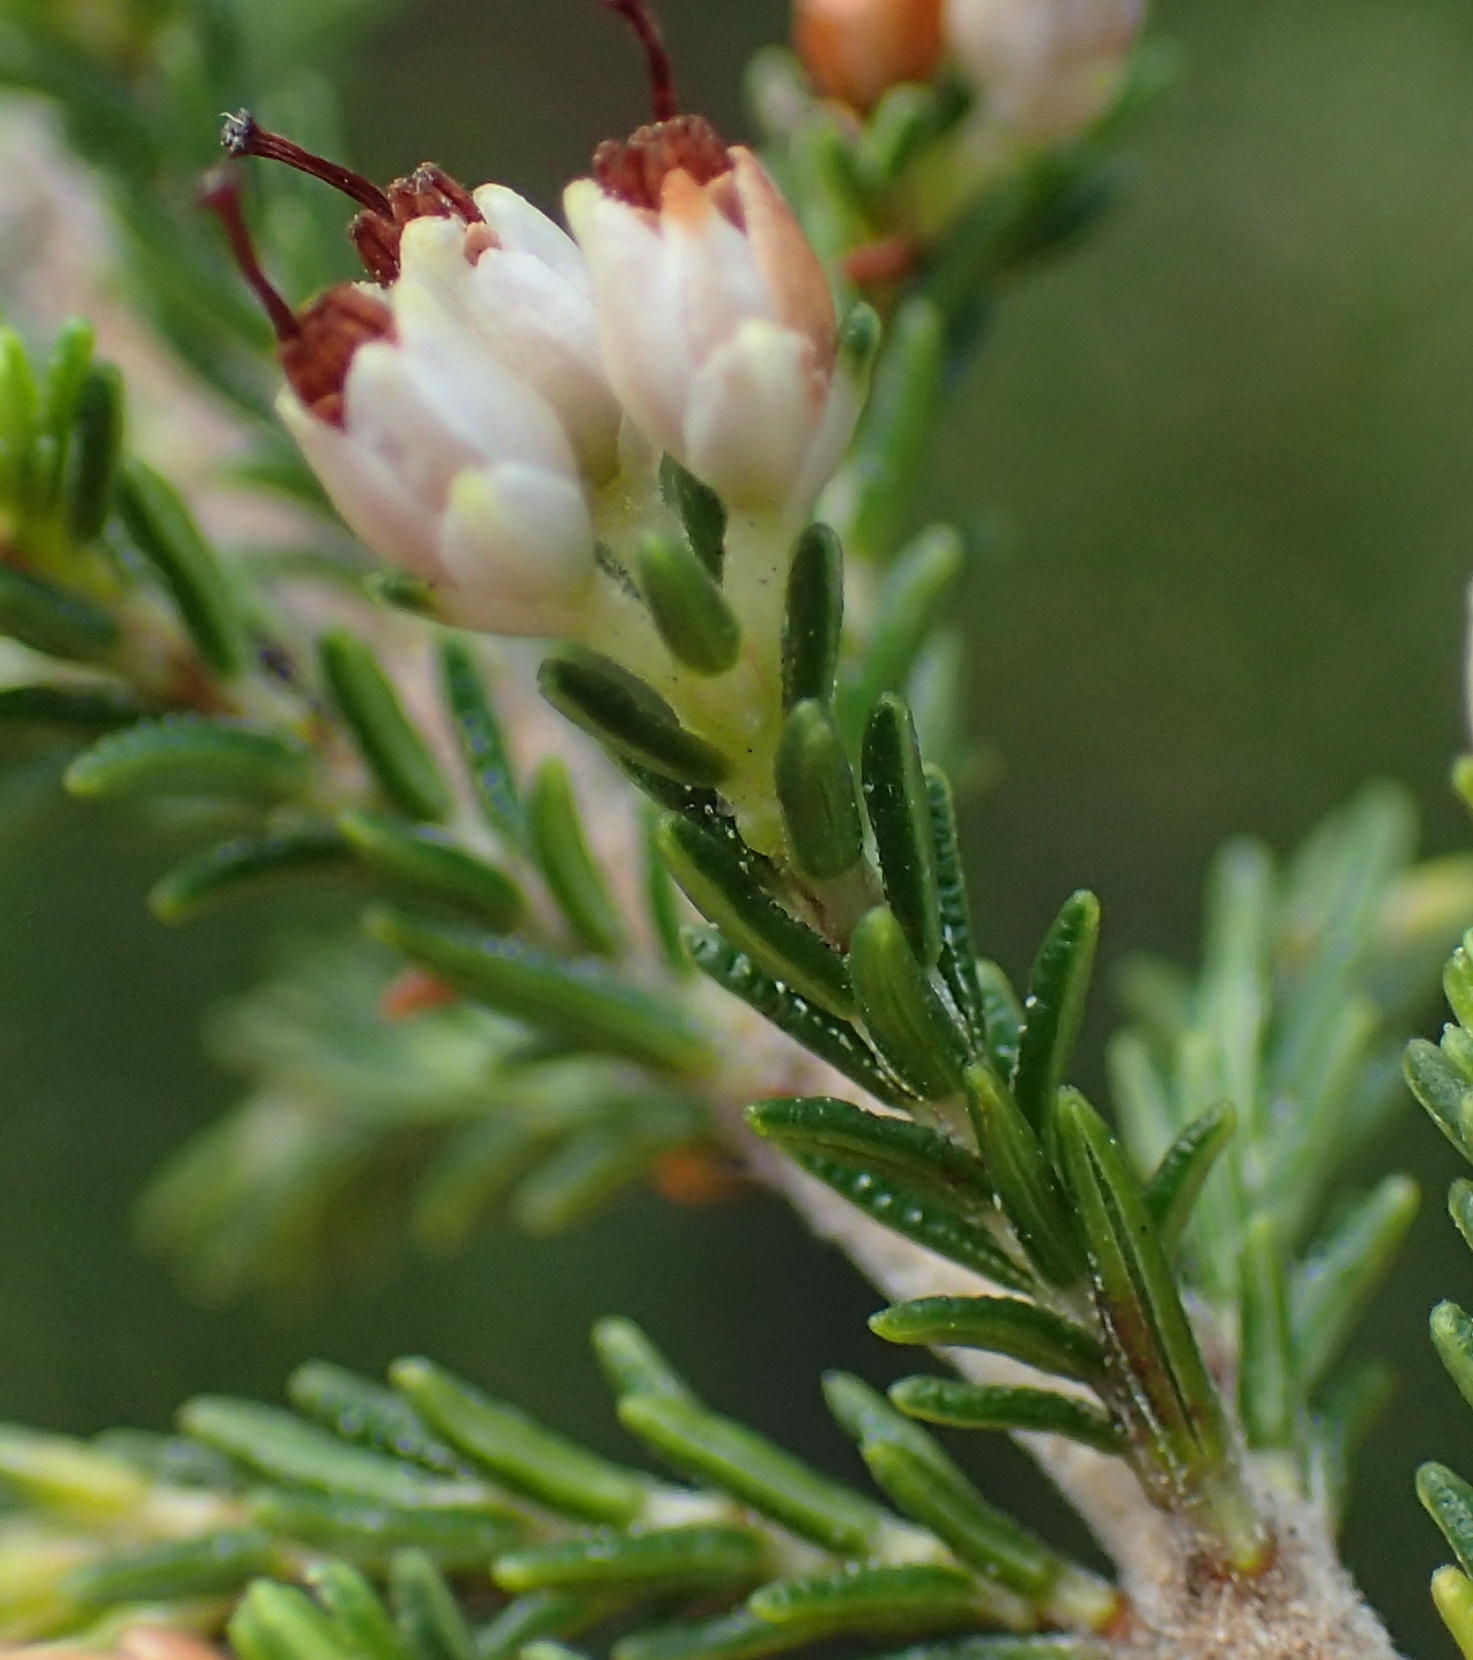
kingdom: Plantae
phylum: Tracheophyta
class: Magnoliopsida
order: Ericales
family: Ericaceae
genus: Erica
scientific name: Erica lasciva
